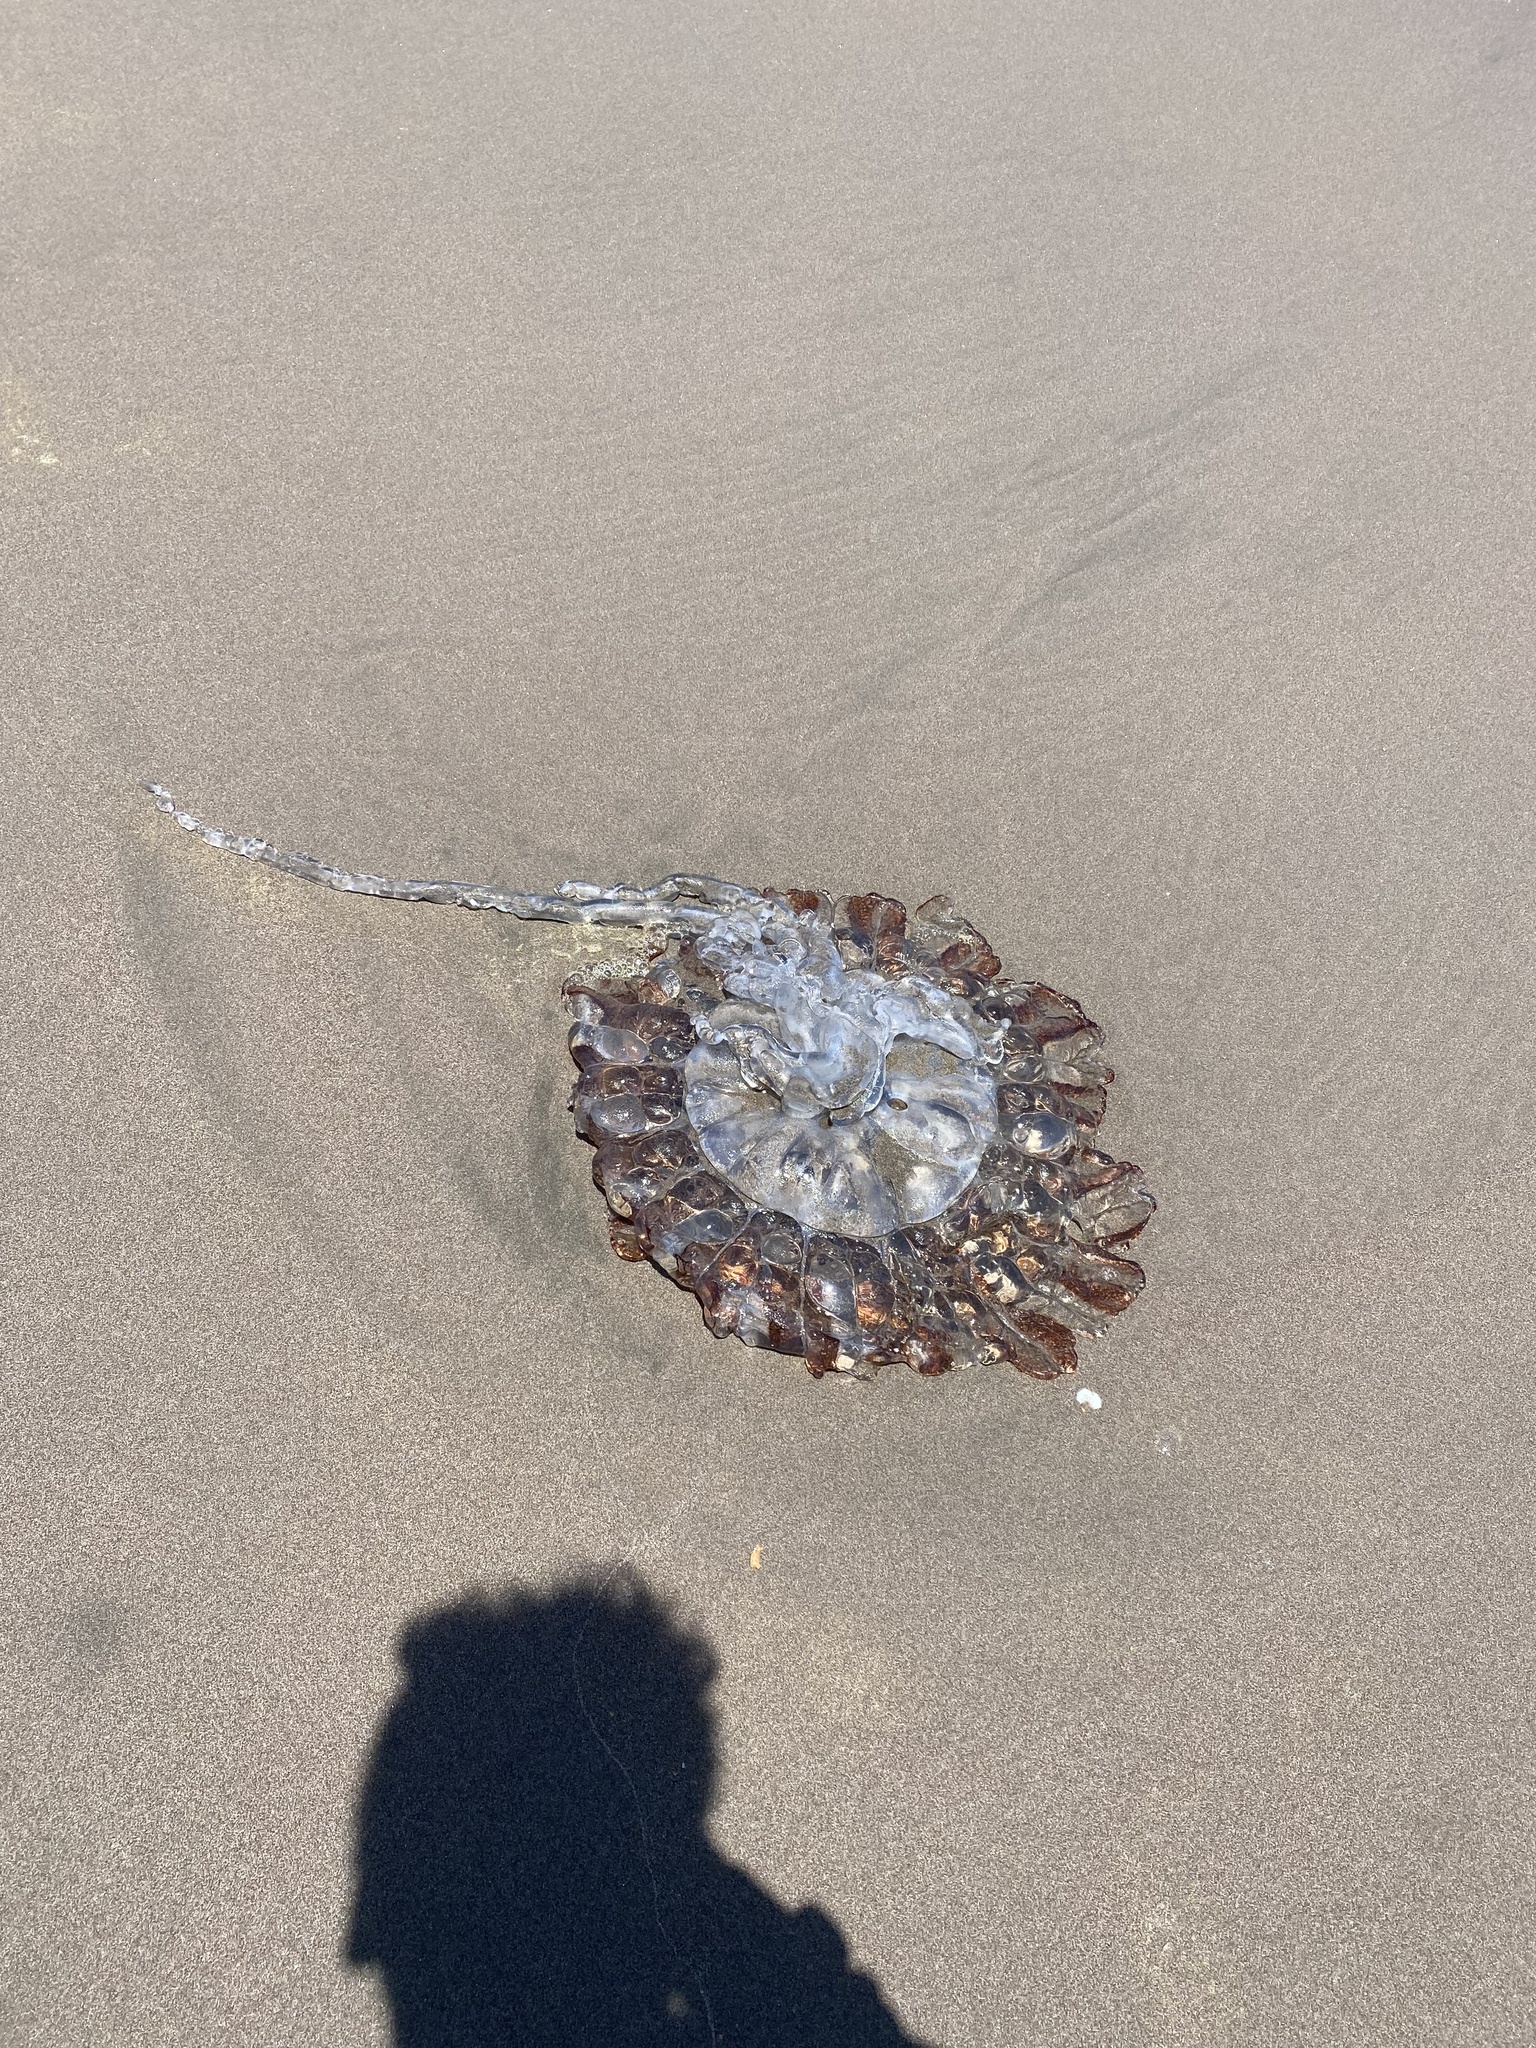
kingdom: Animalia
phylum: Cnidaria
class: Scyphozoa
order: Semaeostomeae
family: Pelagiidae
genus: Chrysaora
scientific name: Chrysaora plocamia
